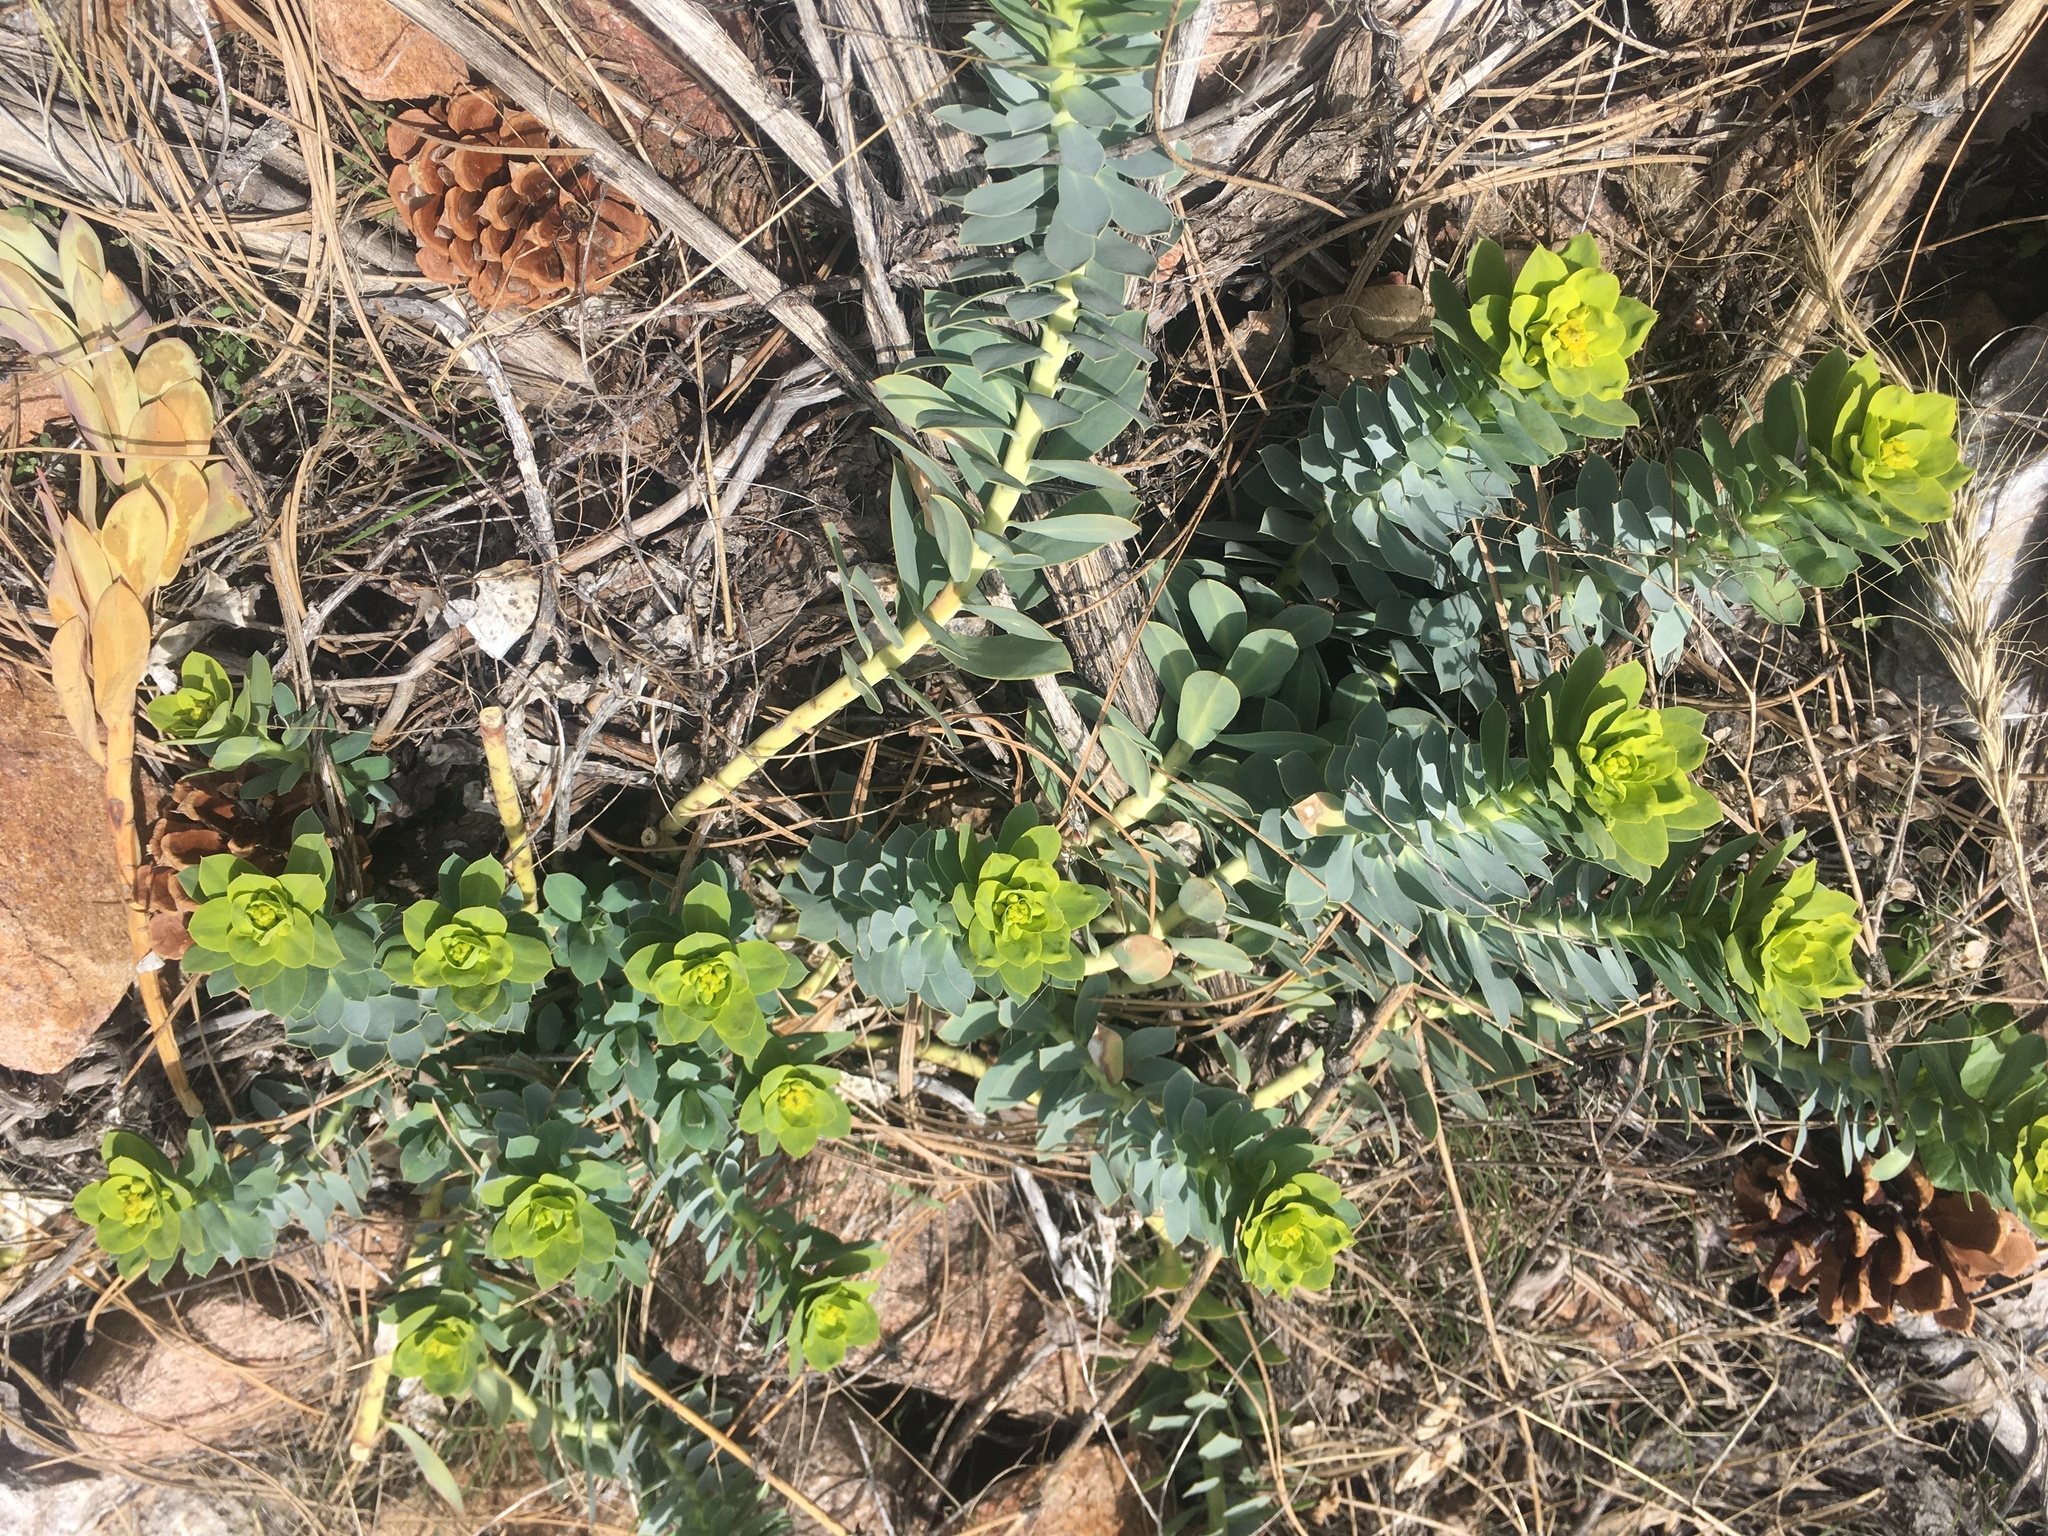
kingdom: Plantae
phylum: Tracheophyta
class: Magnoliopsida
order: Malpighiales
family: Euphorbiaceae
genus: Euphorbia
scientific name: Euphorbia myrsinites
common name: Myrtle spurge
